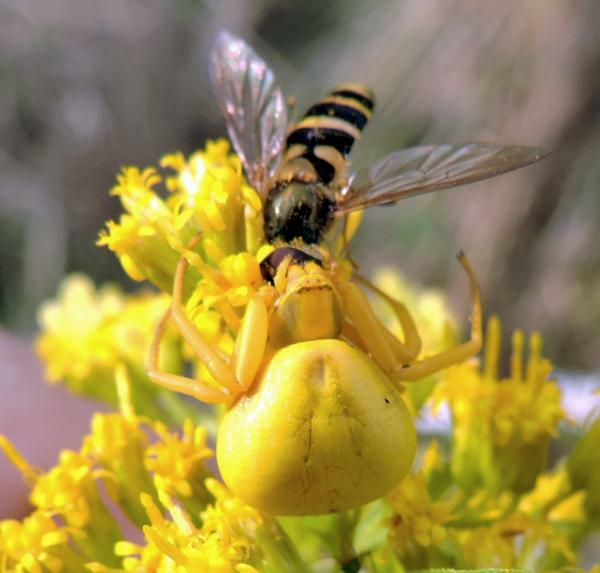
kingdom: Animalia
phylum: Arthropoda
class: Arachnida
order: Araneae
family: Thomisidae
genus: Misumenoides
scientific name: Misumenoides formosipes
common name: White-banded crab spider
